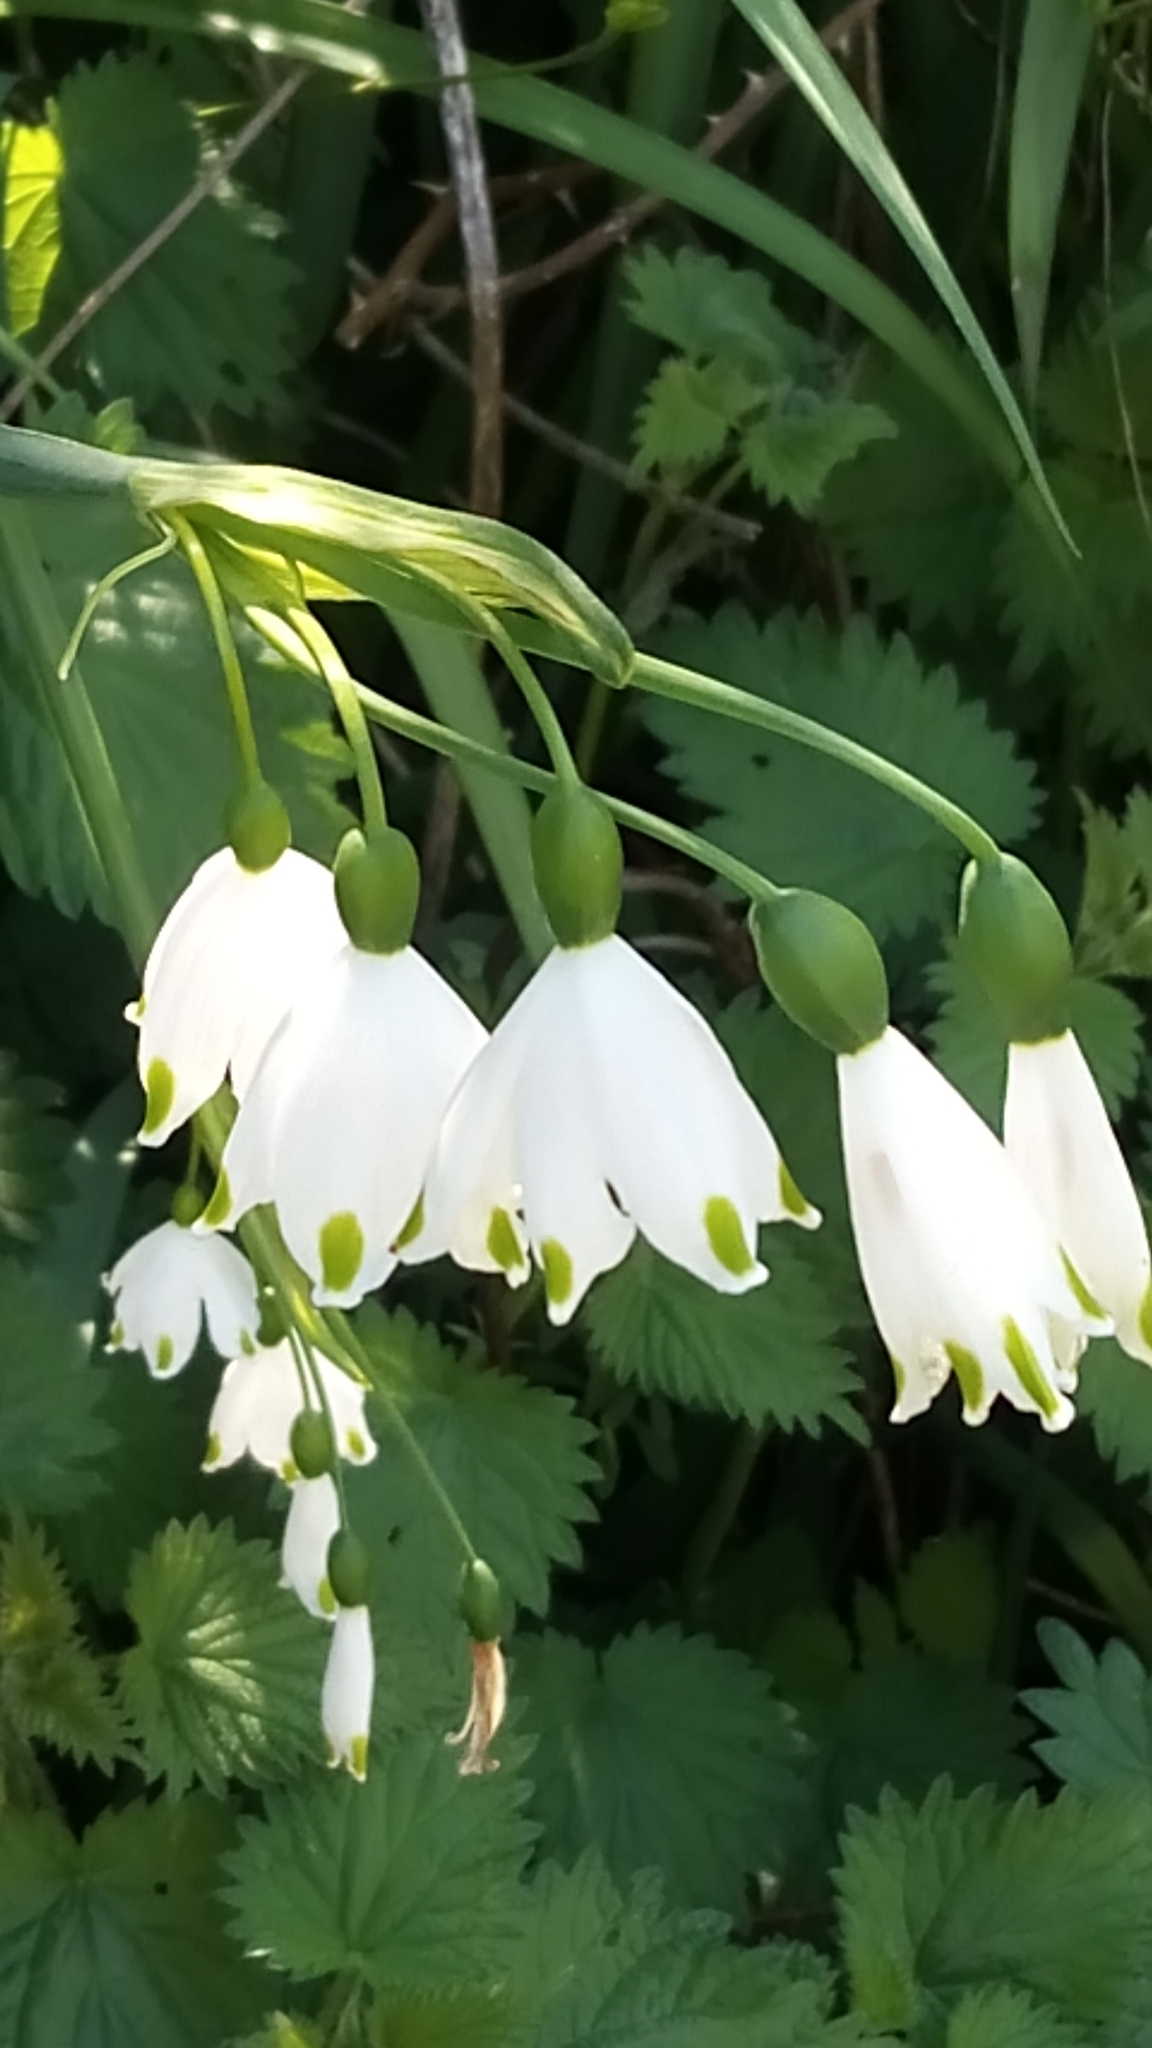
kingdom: Plantae
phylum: Tracheophyta
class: Liliopsida
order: Asparagales
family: Amaryllidaceae
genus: Leucojum
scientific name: Leucojum aestivum
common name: Summer snowflake
